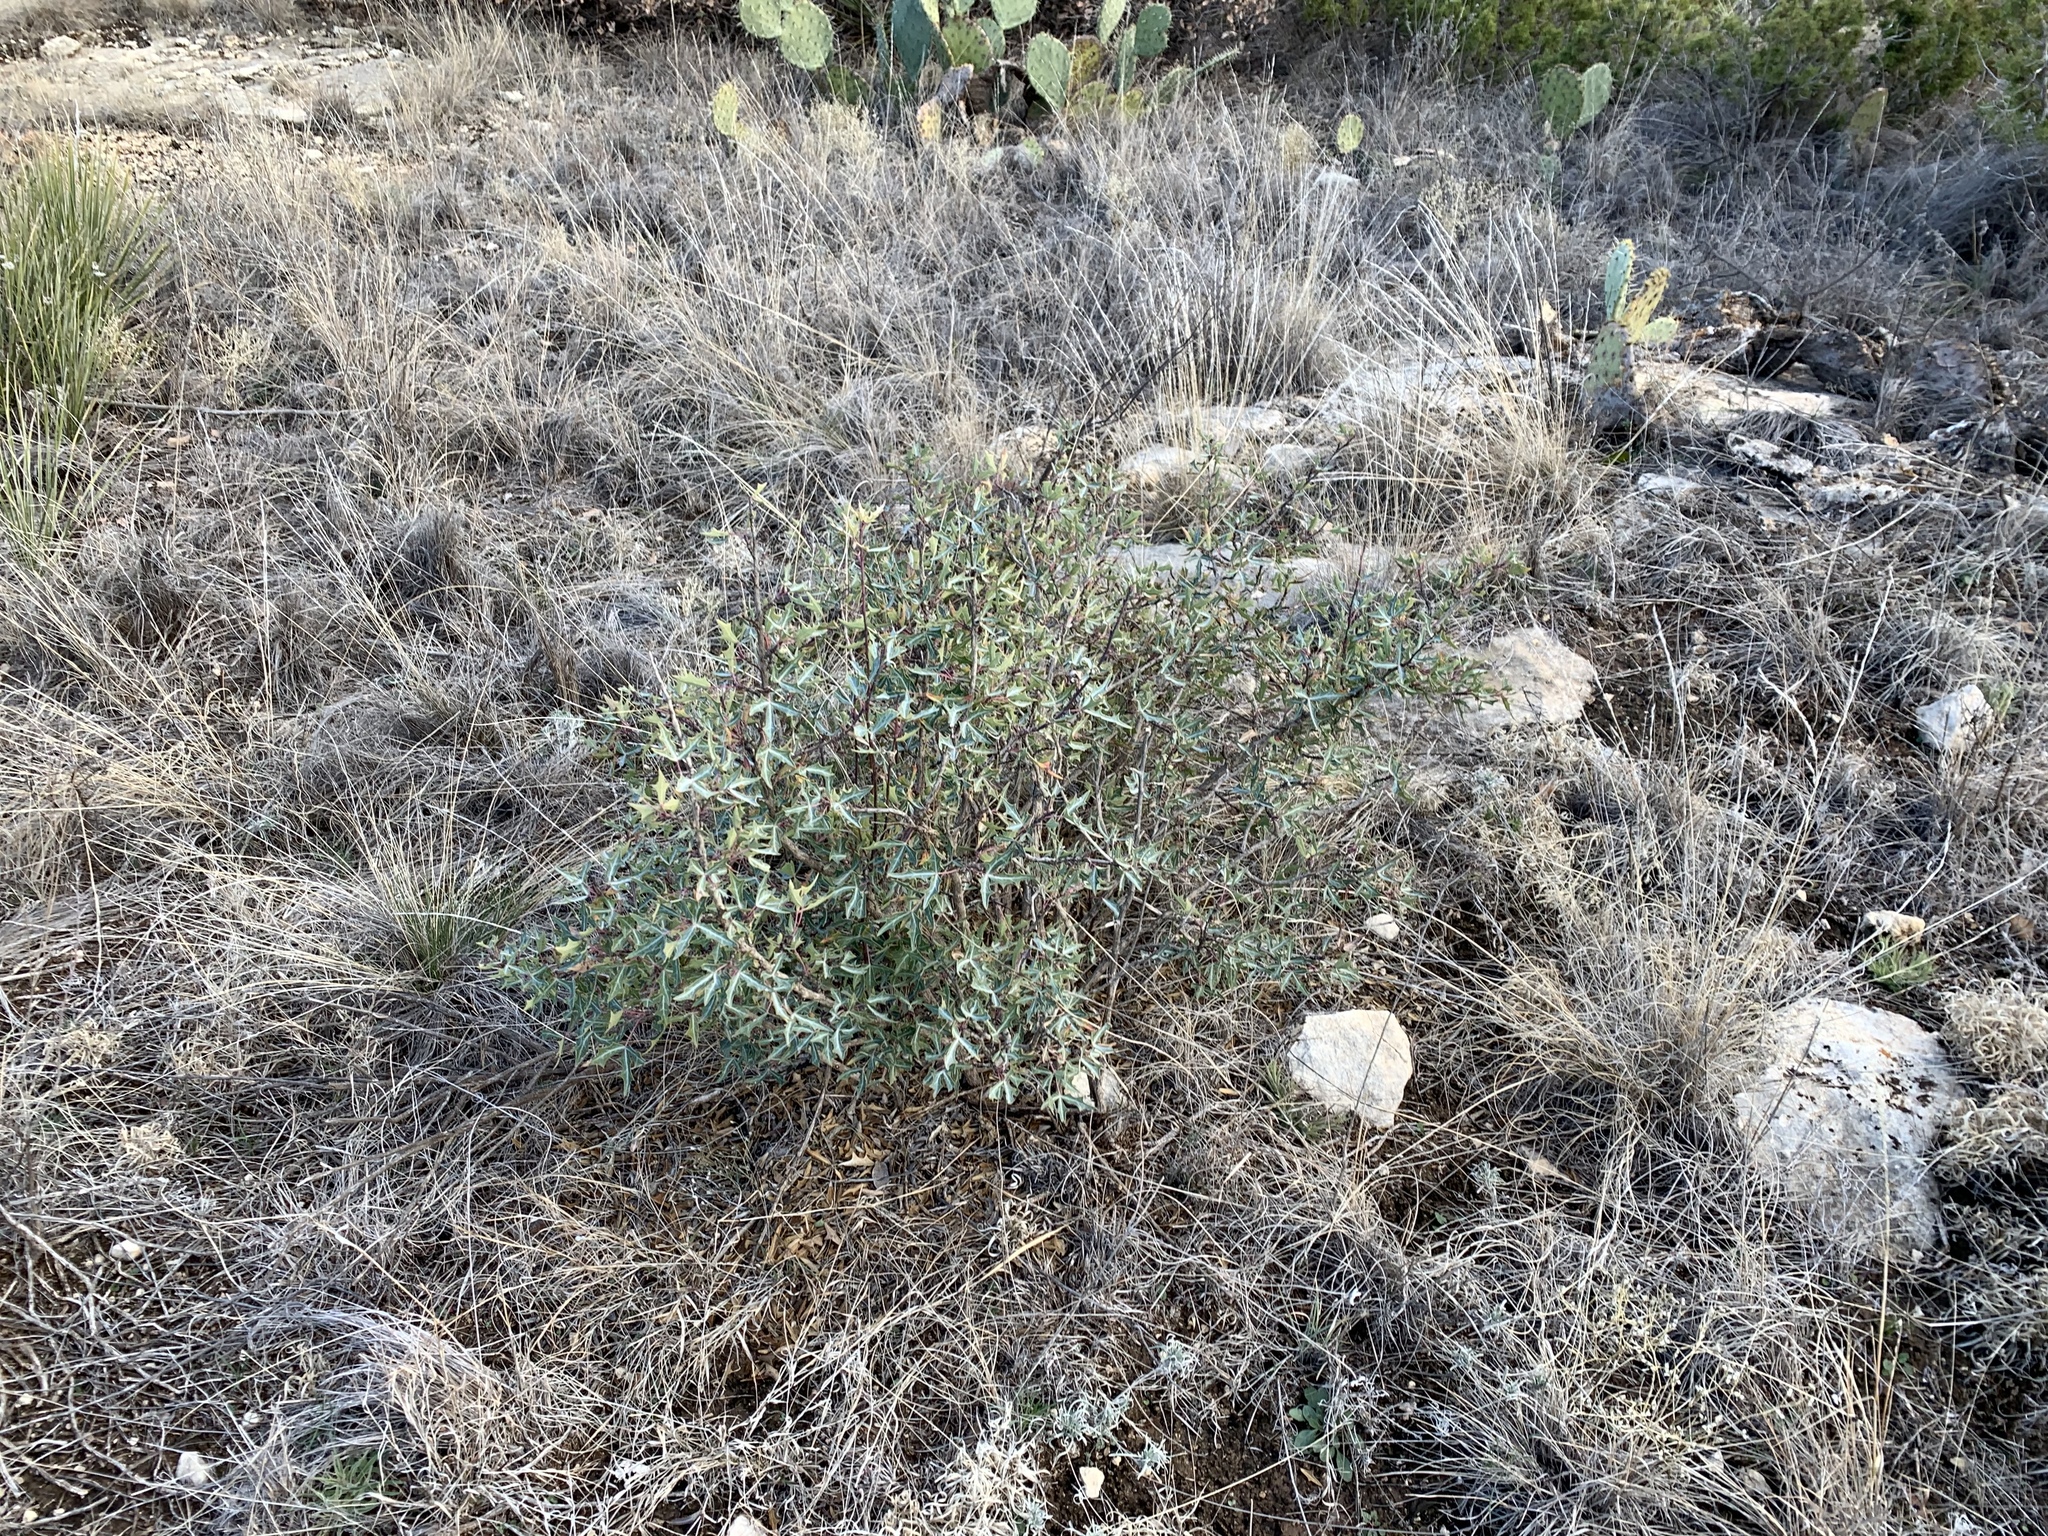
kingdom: Plantae
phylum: Tracheophyta
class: Magnoliopsida
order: Ranunculales
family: Berberidaceae
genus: Alloberberis
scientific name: Alloberberis trifoliolata
